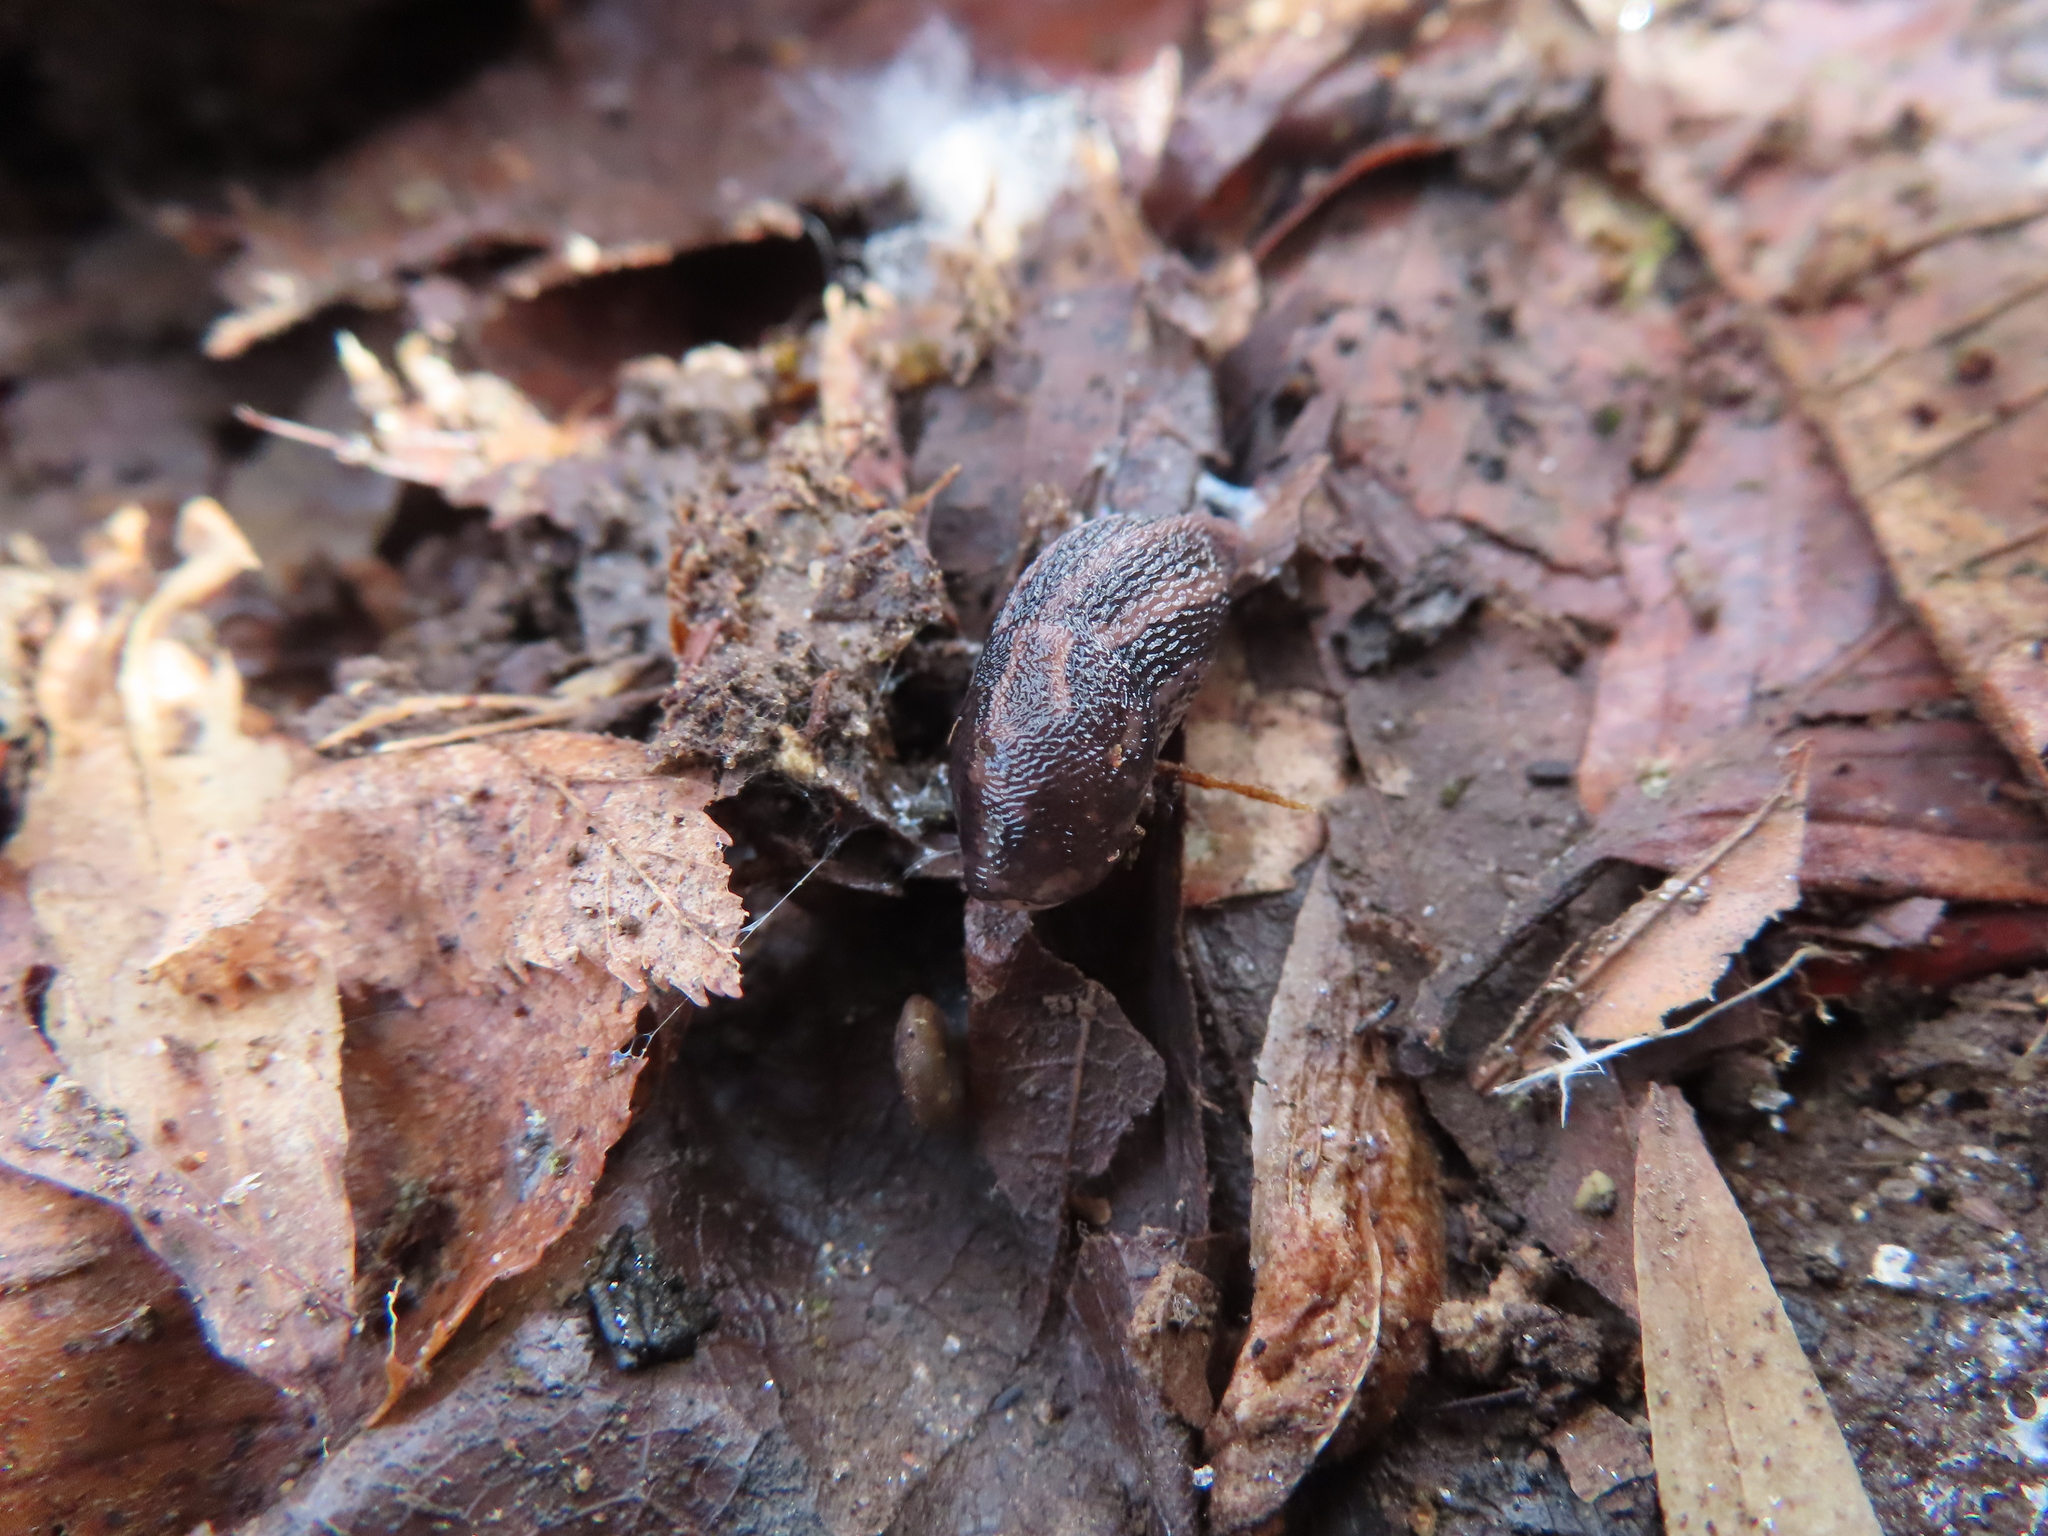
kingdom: Animalia
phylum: Mollusca
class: Gastropoda
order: Stylommatophora
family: Limacidae
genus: Limax
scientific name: Limax maximus
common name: Great grey slug
